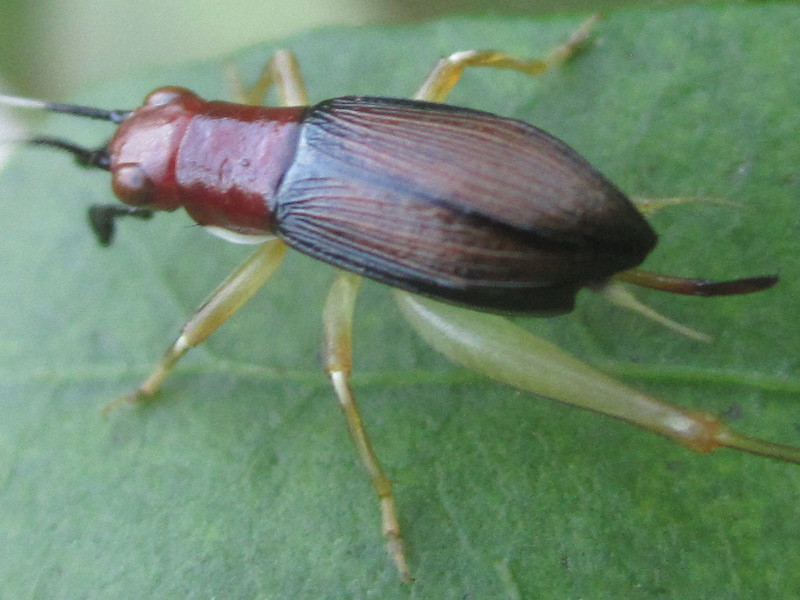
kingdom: Animalia
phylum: Arthropoda
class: Insecta
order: Orthoptera
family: Trigonidiidae
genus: Phyllopalpus
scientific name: Phyllopalpus pulchellus
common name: Handsome trig
